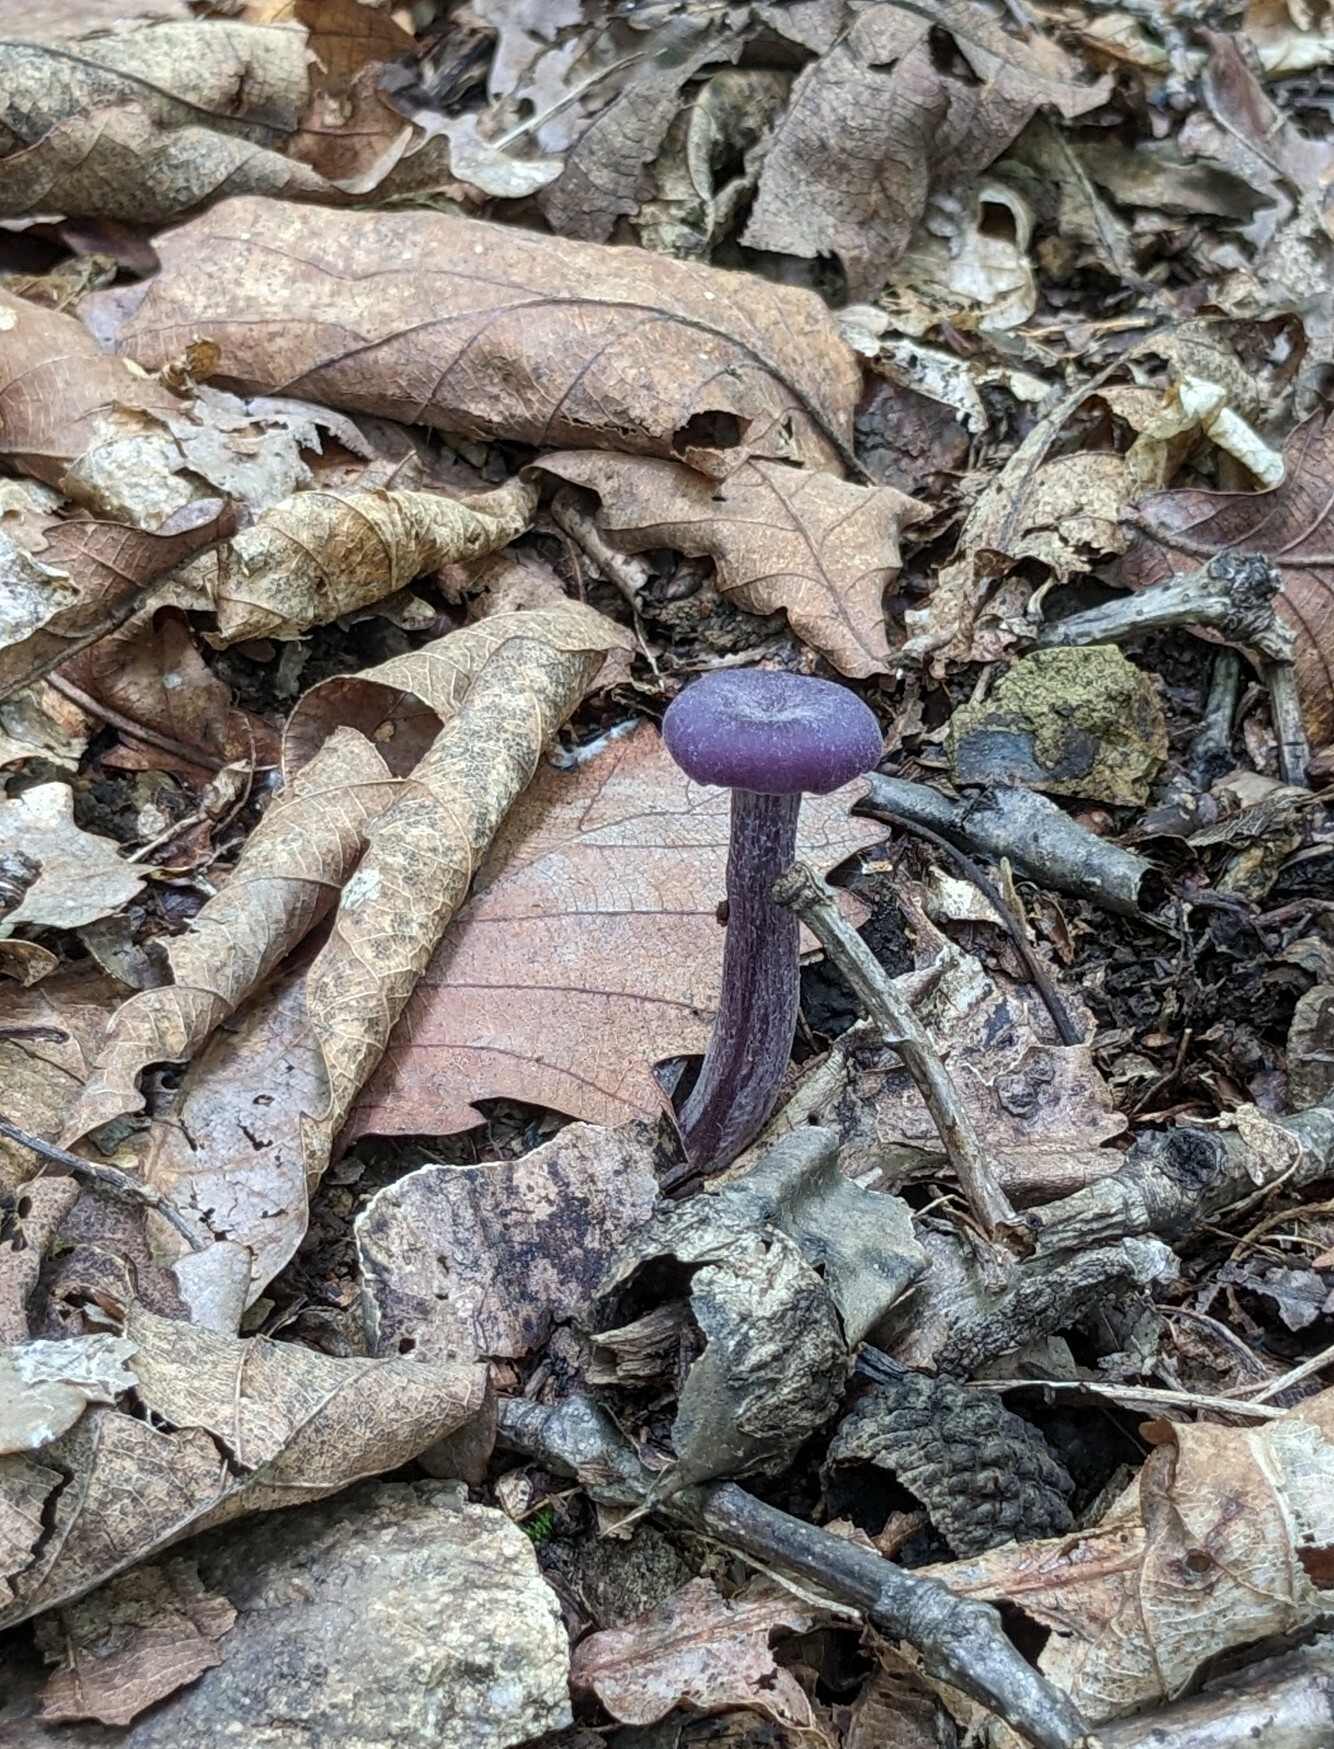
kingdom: Fungi
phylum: Basidiomycota
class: Agaricomycetes
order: Agaricales
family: Hydnangiaceae
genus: Laccaria
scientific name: Laccaria amethystina
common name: Amethyst deceiver
